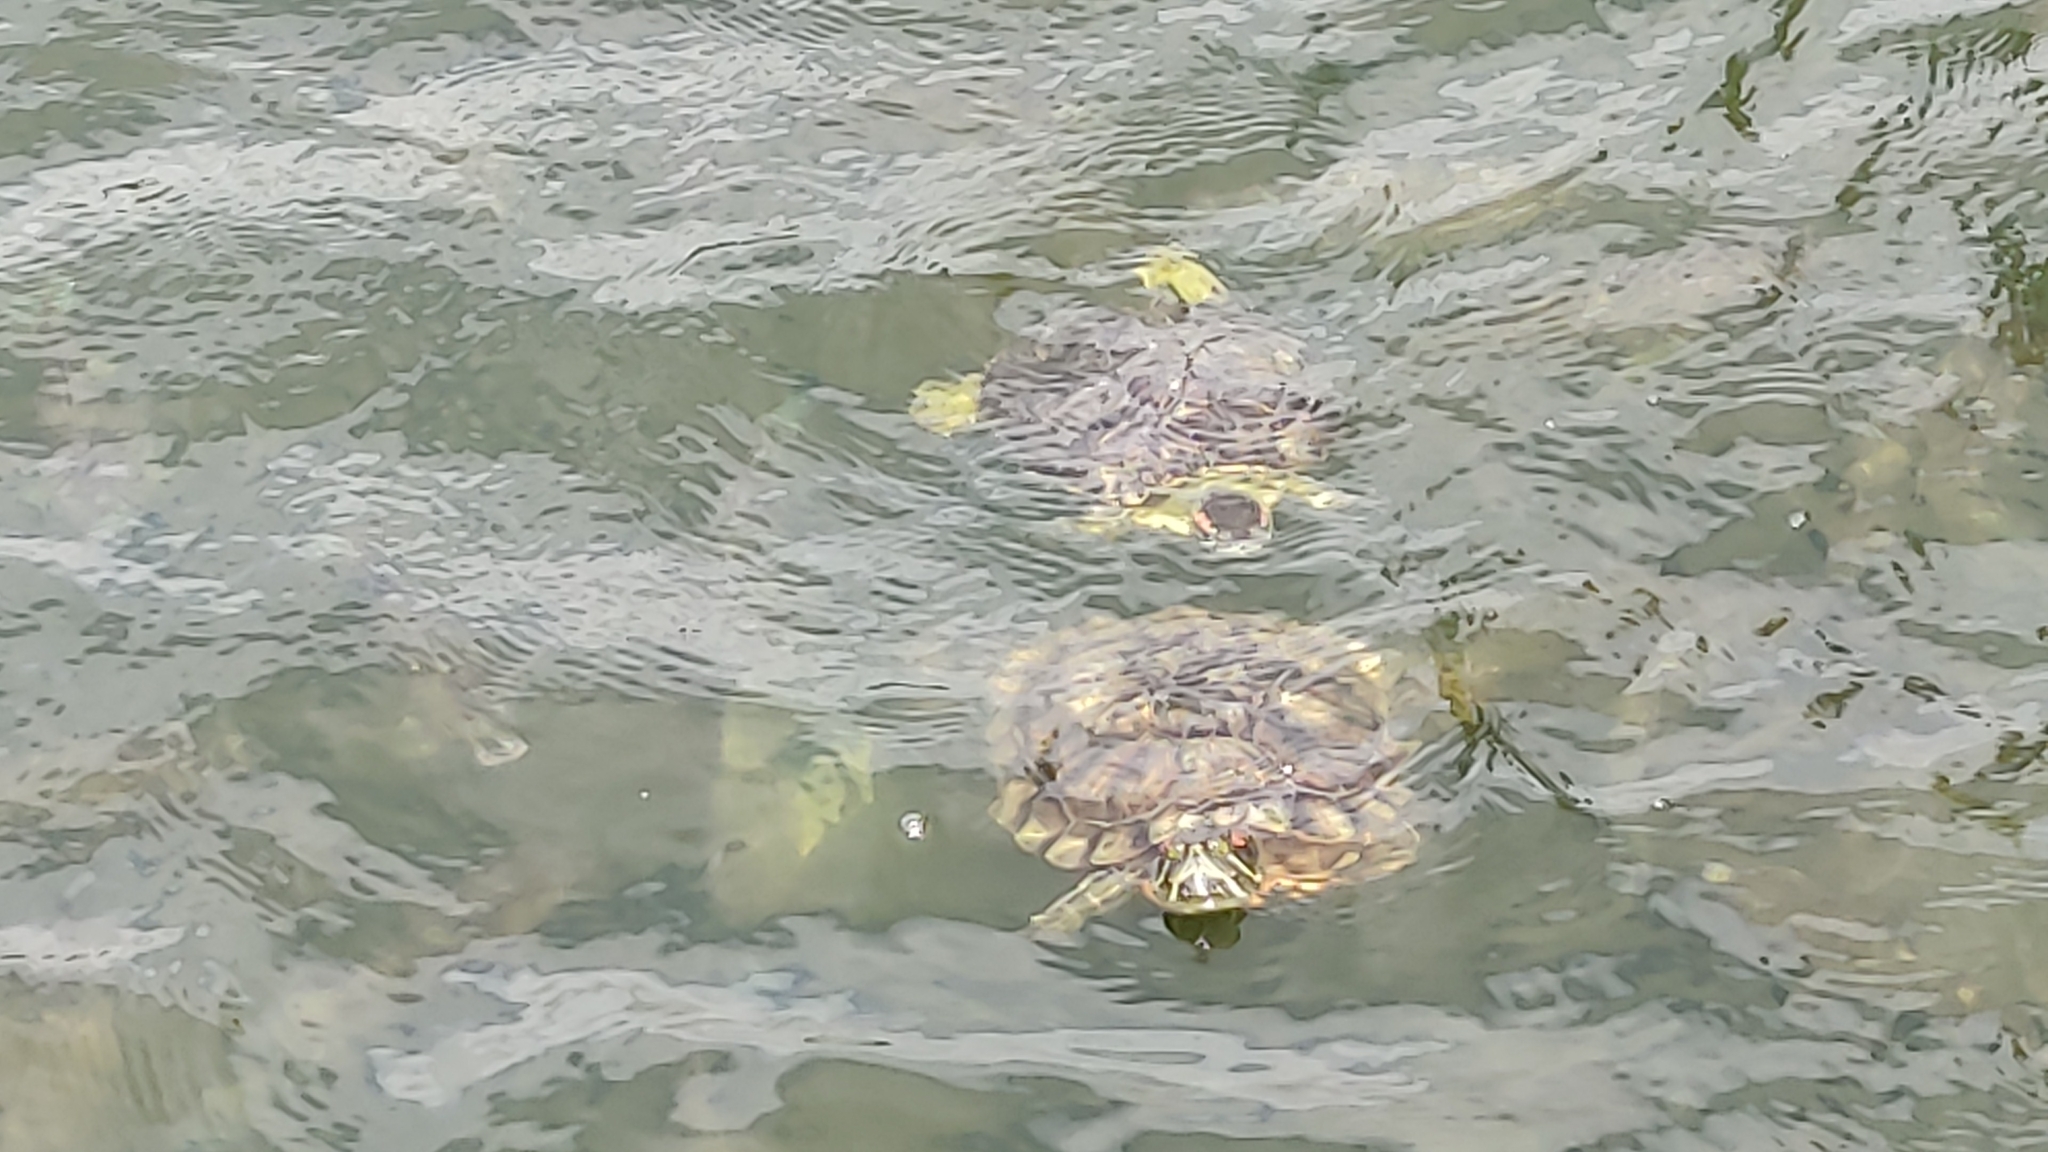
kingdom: Animalia
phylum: Chordata
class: Testudines
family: Emydidae
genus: Trachemys
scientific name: Trachemys scripta
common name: Slider
